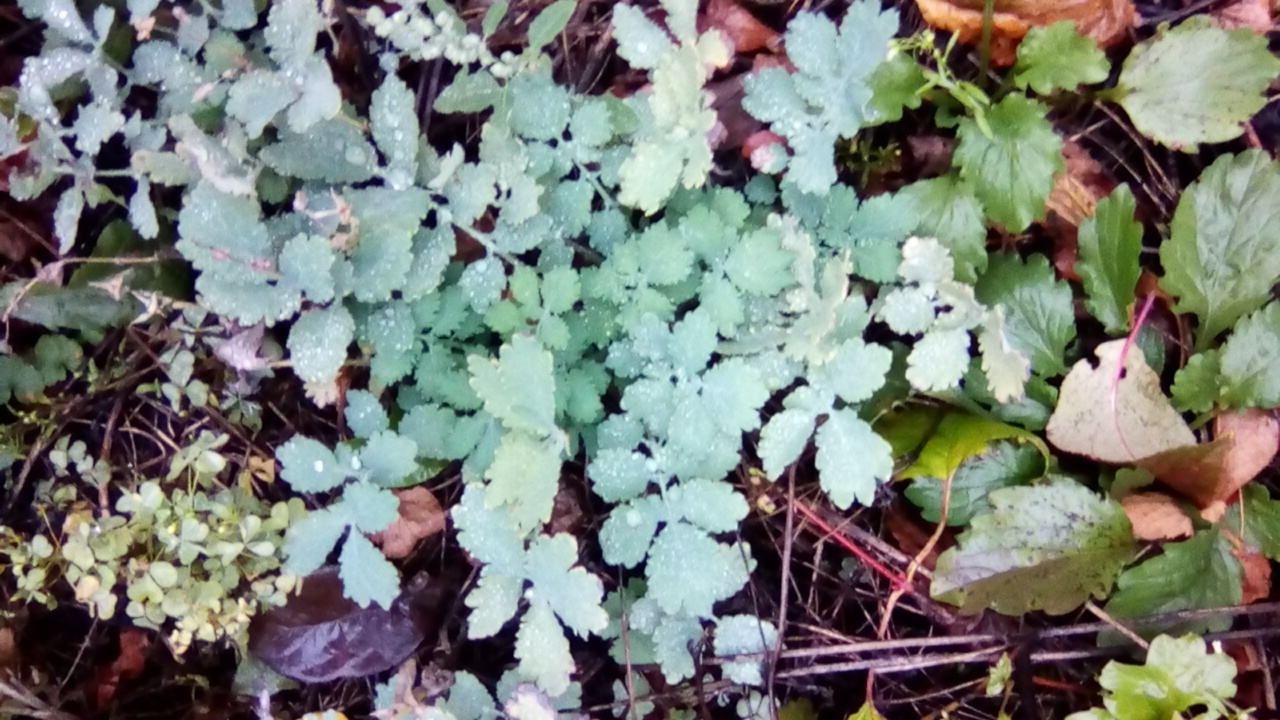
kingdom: Plantae
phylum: Tracheophyta
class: Magnoliopsida
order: Ranunculales
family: Papaveraceae
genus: Chelidonium
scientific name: Chelidonium majus
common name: Greater celandine
